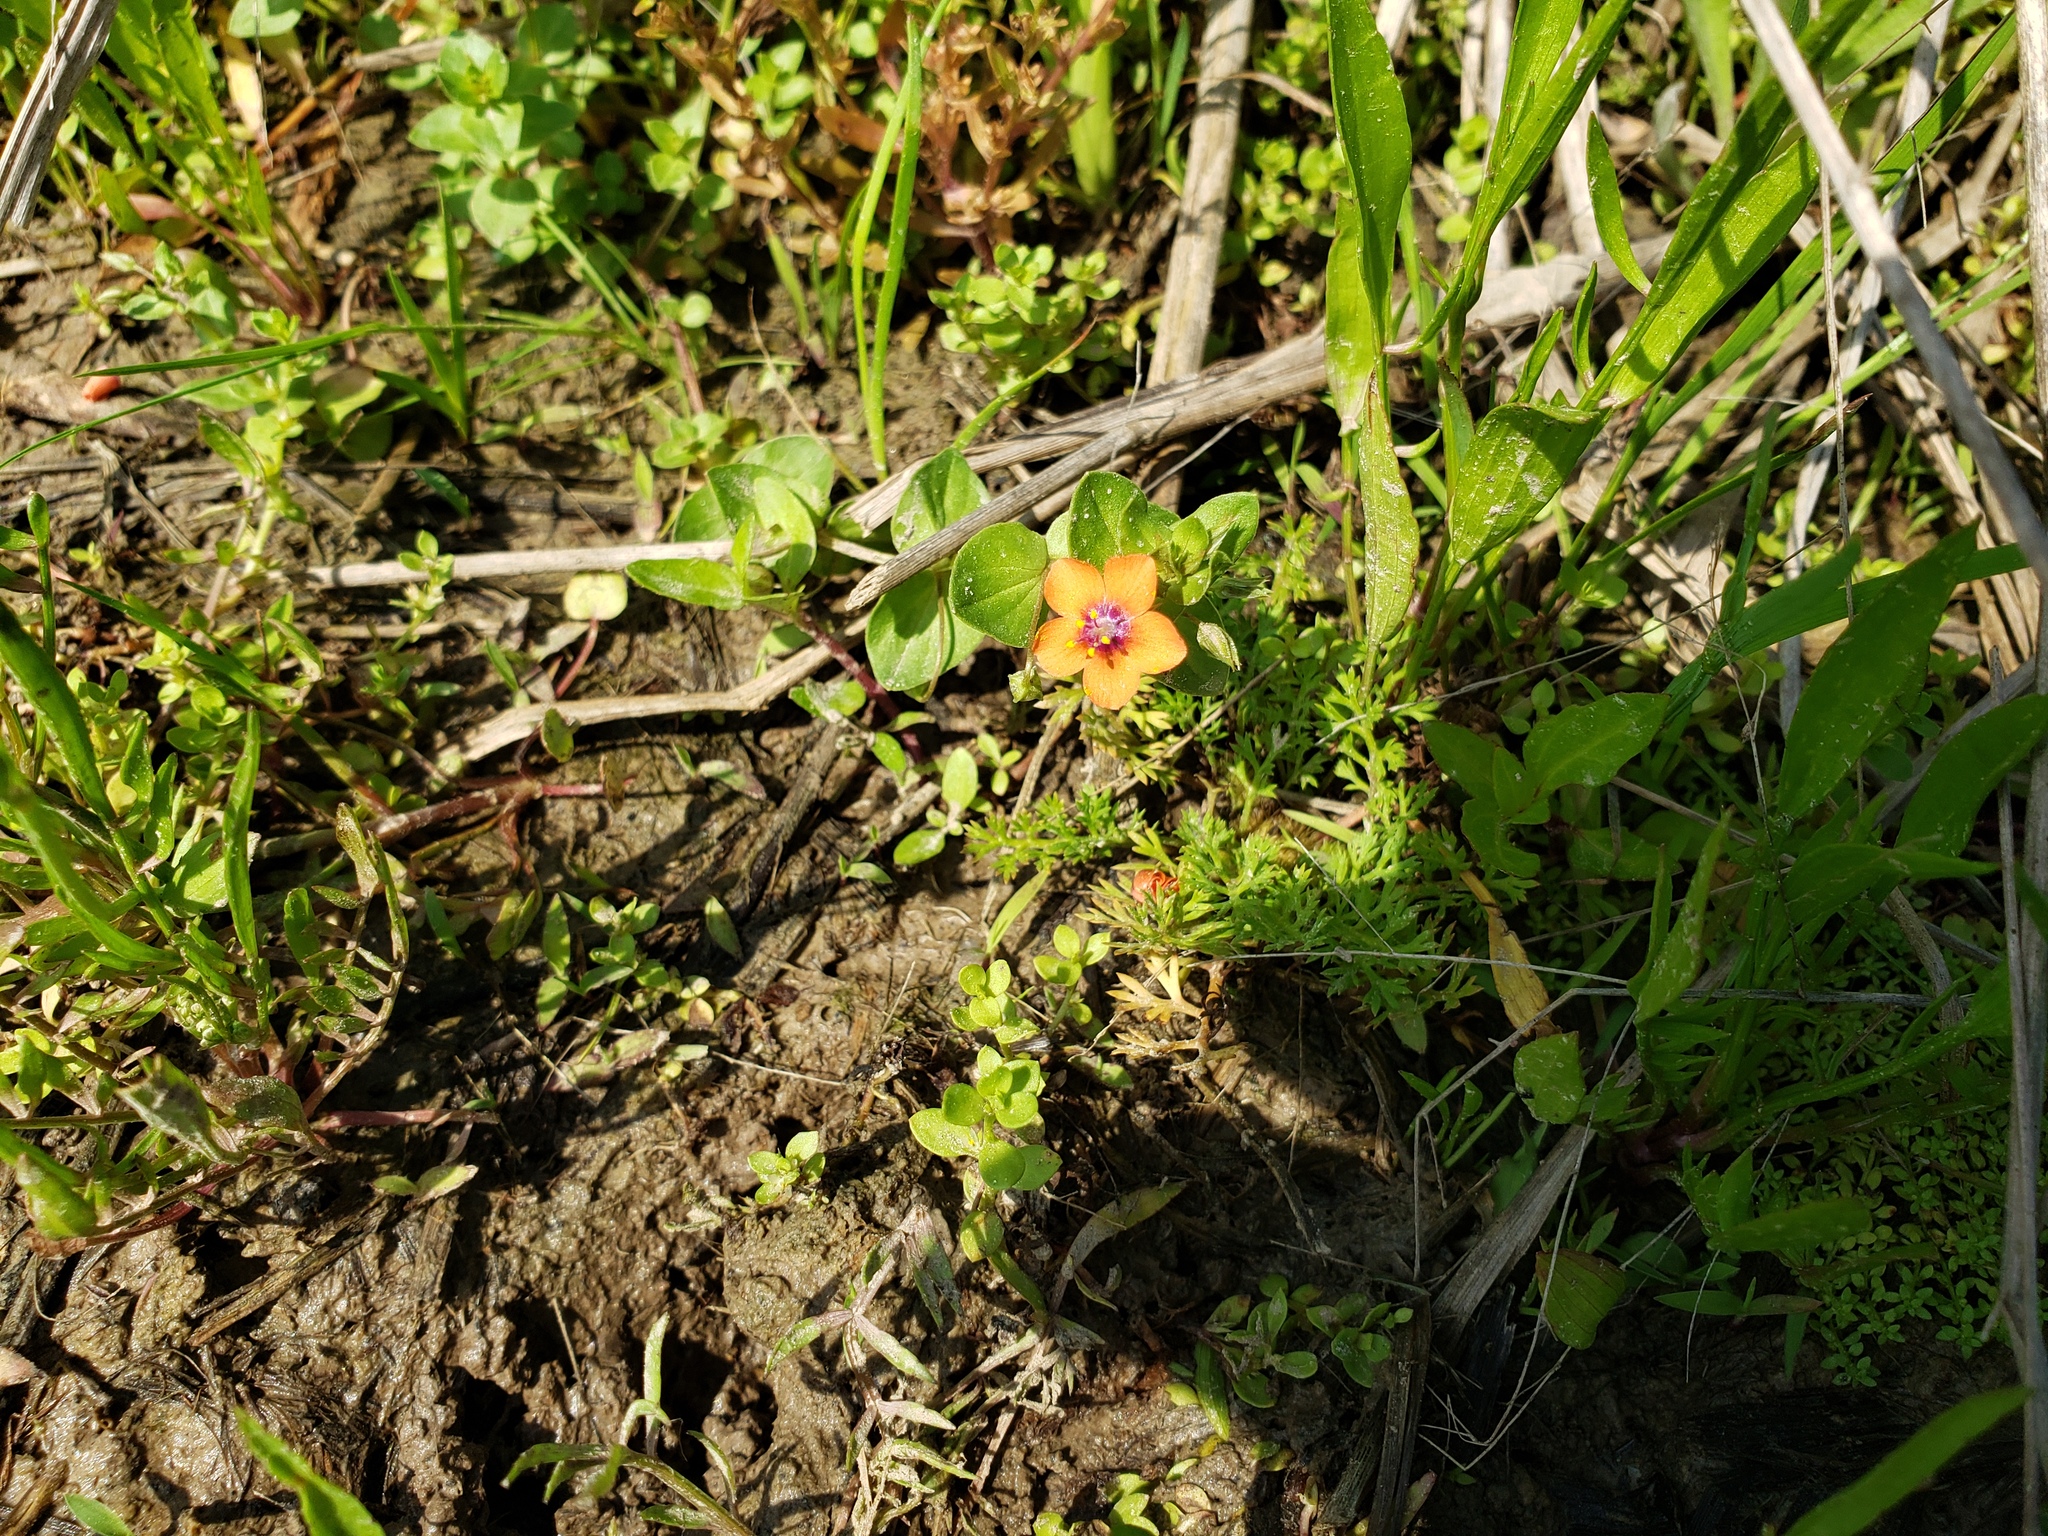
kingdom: Plantae
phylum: Tracheophyta
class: Magnoliopsida
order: Ericales
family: Primulaceae
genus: Lysimachia
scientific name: Lysimachia arvensis
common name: Scarlet pimpernel
